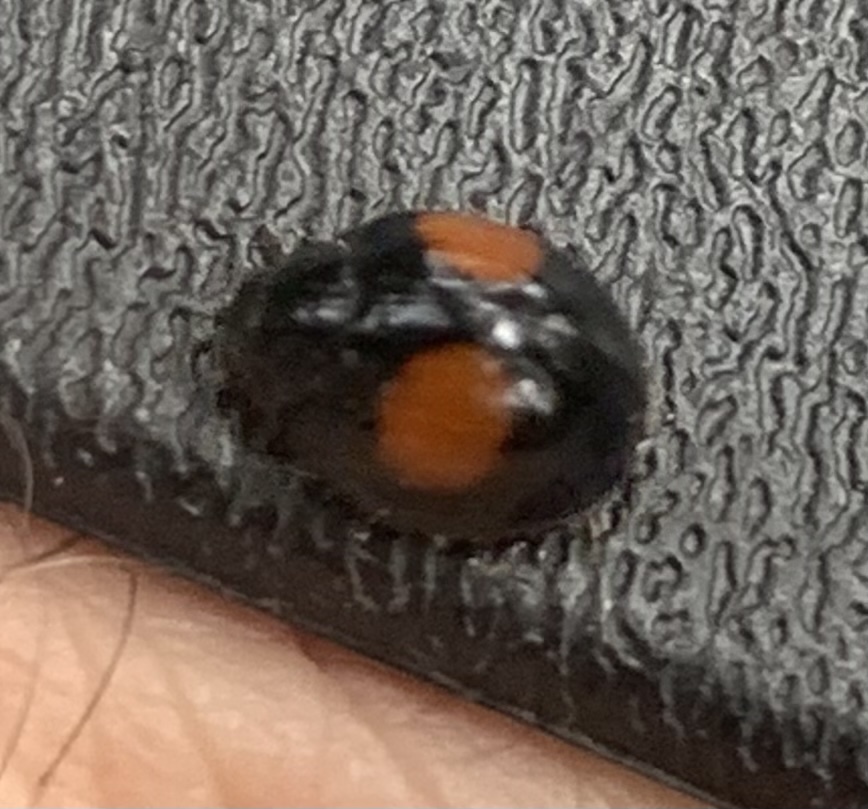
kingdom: Animalia
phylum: Arthropoda
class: Insecta
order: Coleoptera
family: Coccinellidae
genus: Chilocorus
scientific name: Chilocorus cacti
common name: Cactus lady beetle
